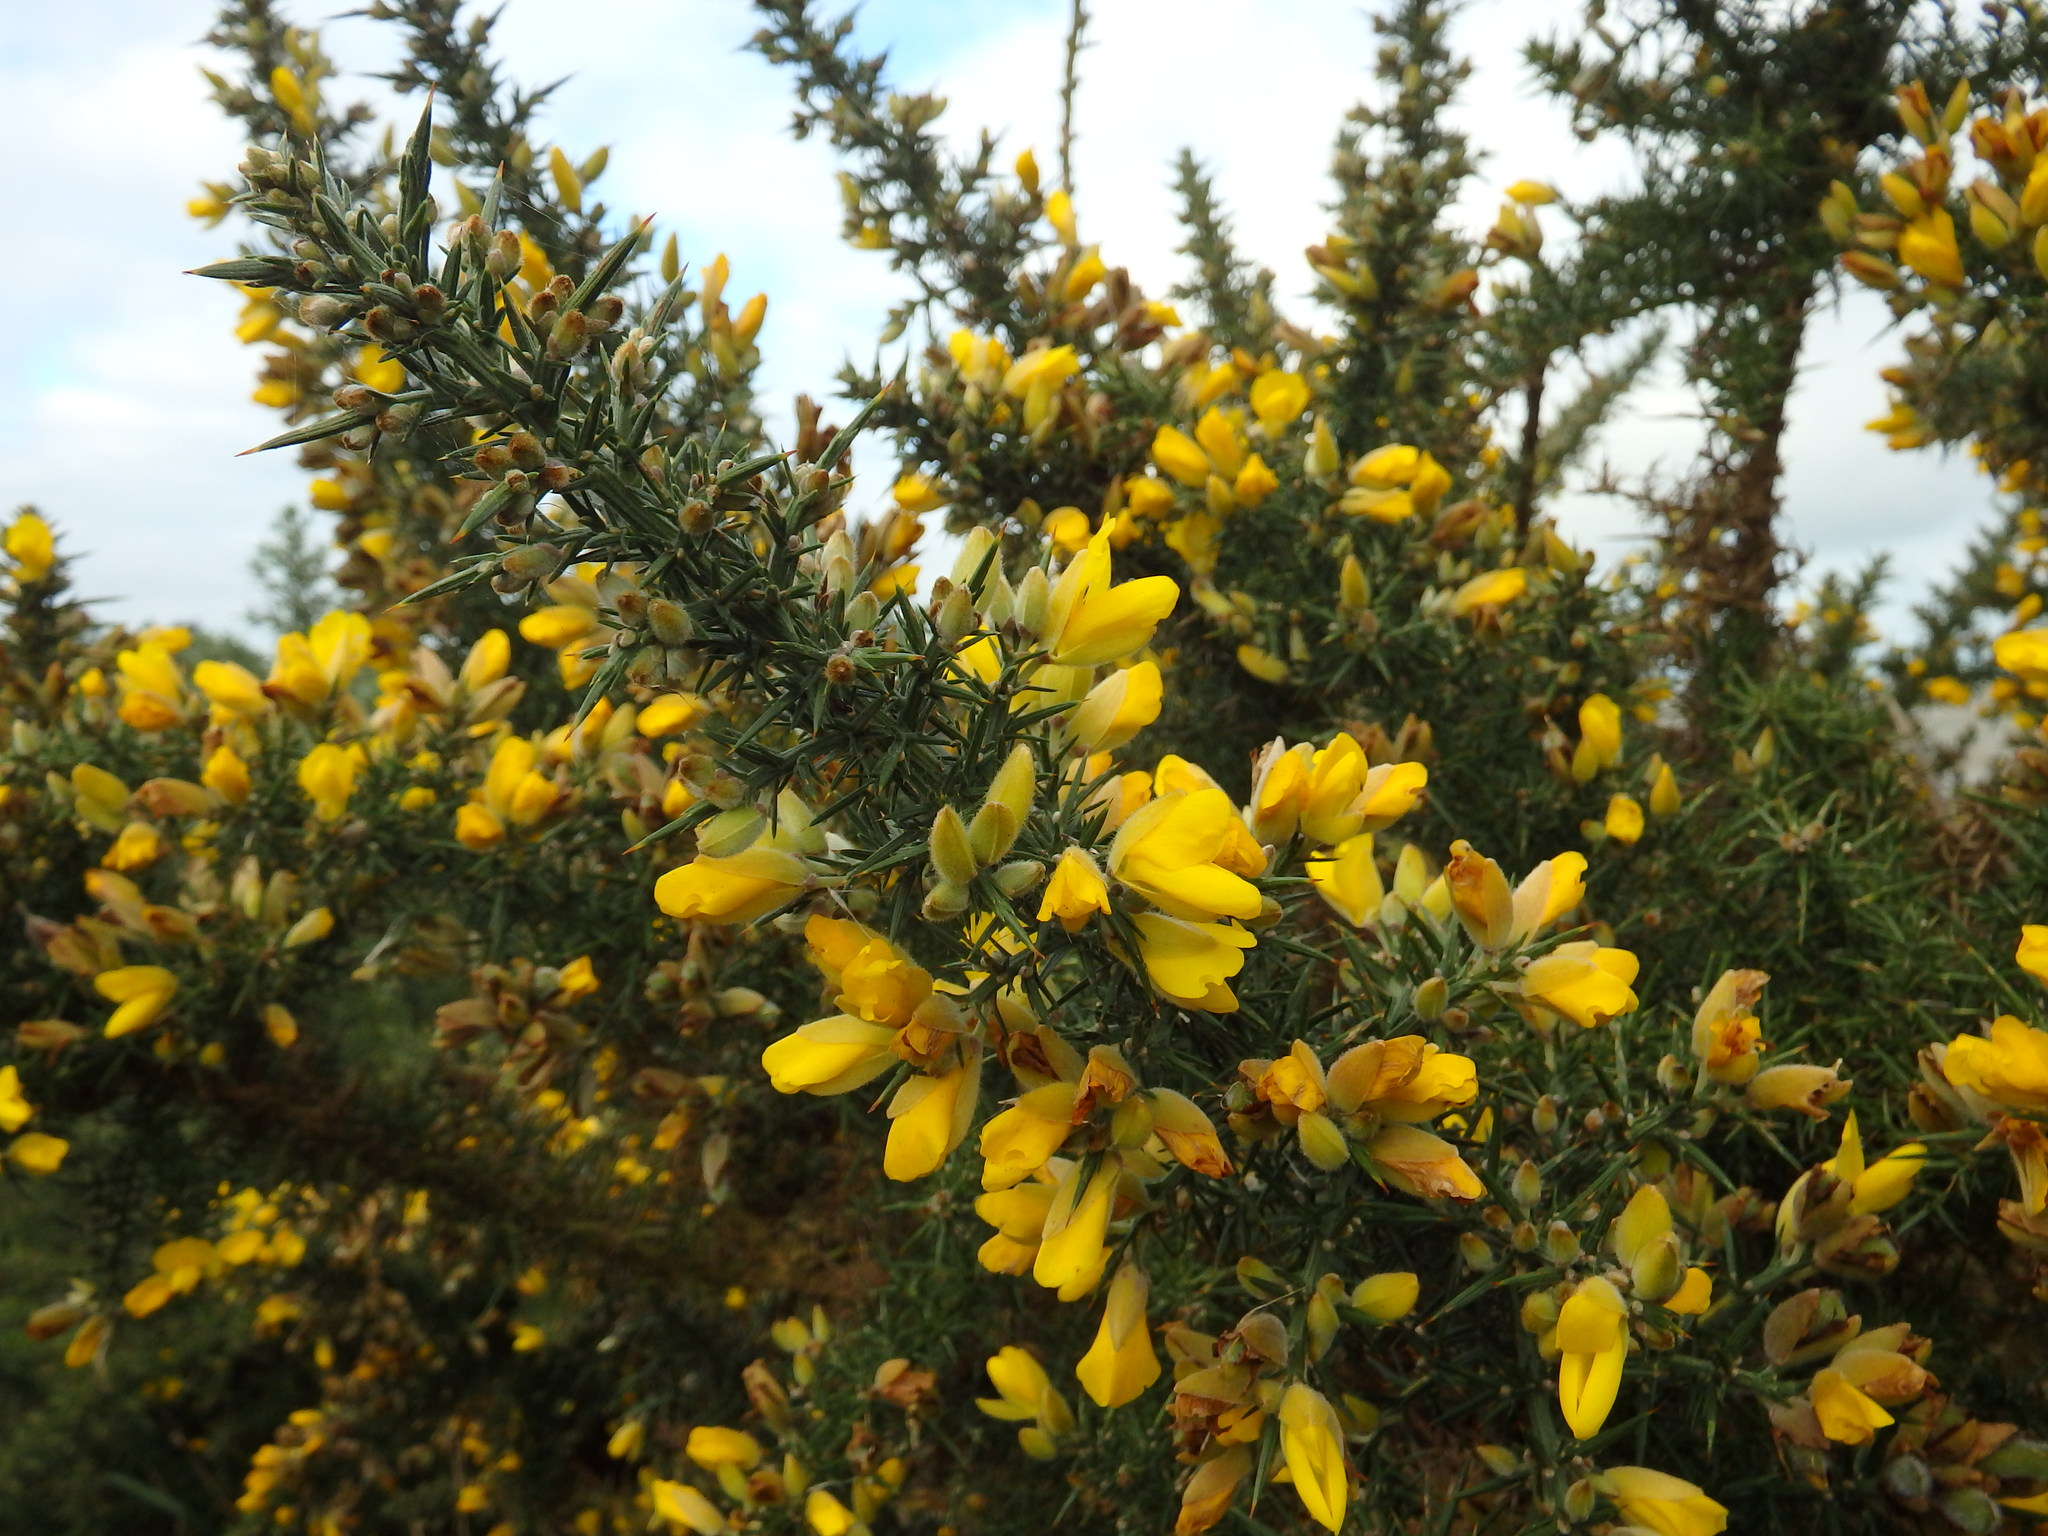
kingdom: Plantae
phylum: Tracheophyta
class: Magnoliopsida
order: Fabales
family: Fabaceae
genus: Ulex
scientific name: Ulex europaeus
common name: Common gorse
